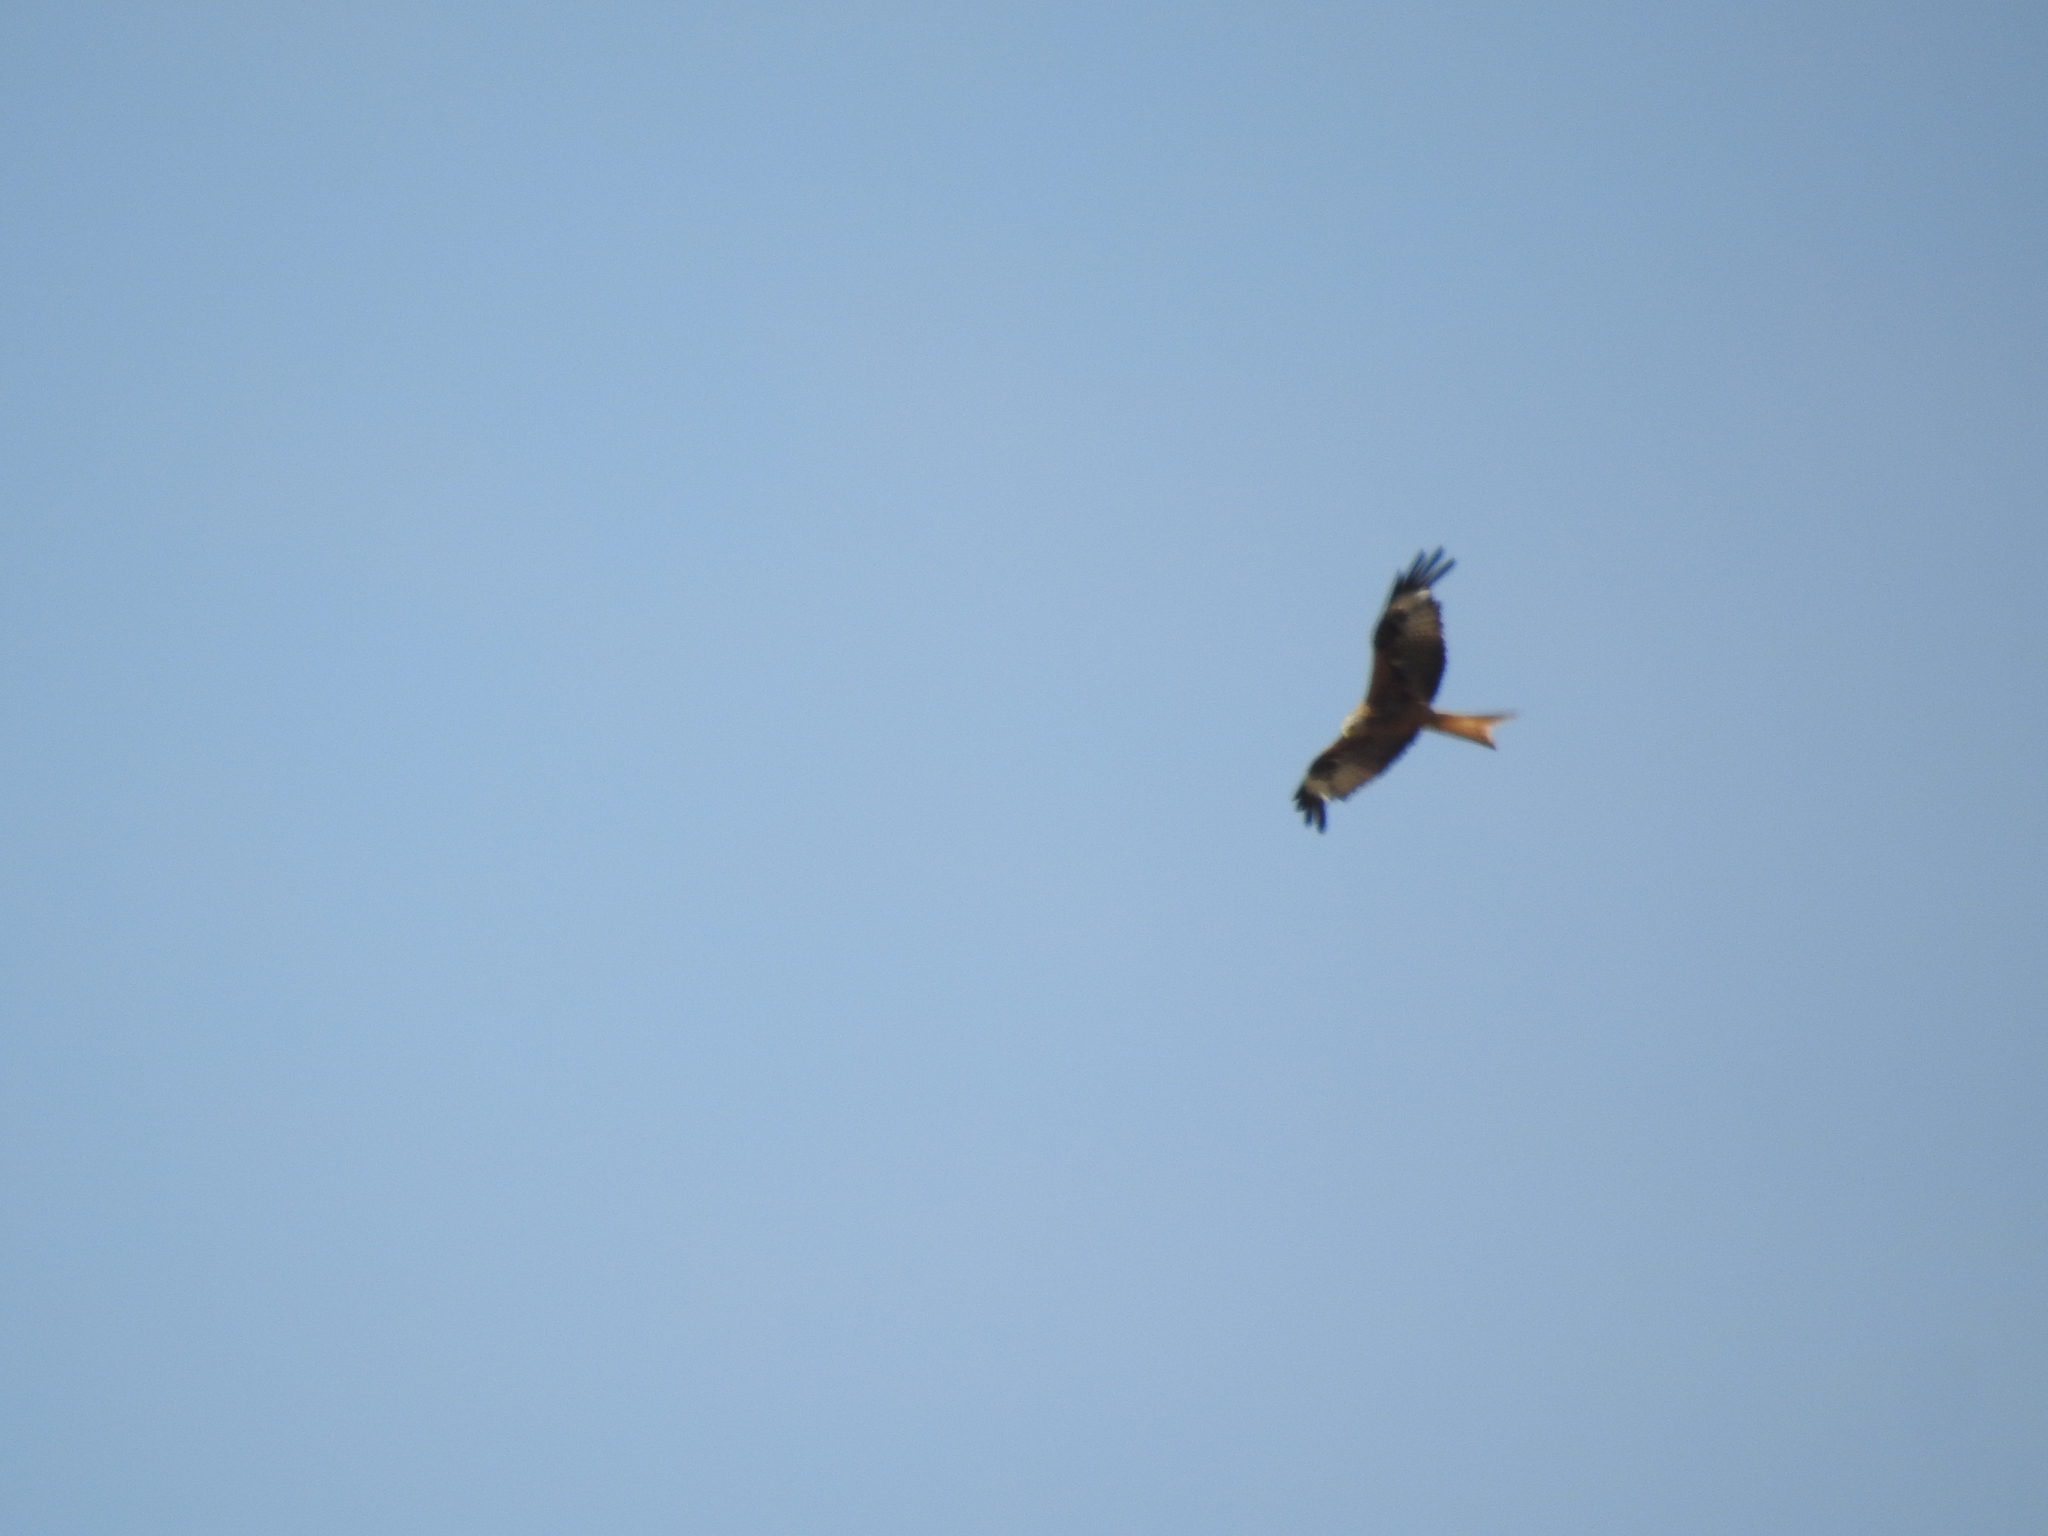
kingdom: Animalia
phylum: Chordata
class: Aves
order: Accipitriformes
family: Accipitridae
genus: Milvus
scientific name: Milvus milvus
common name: Red kite
